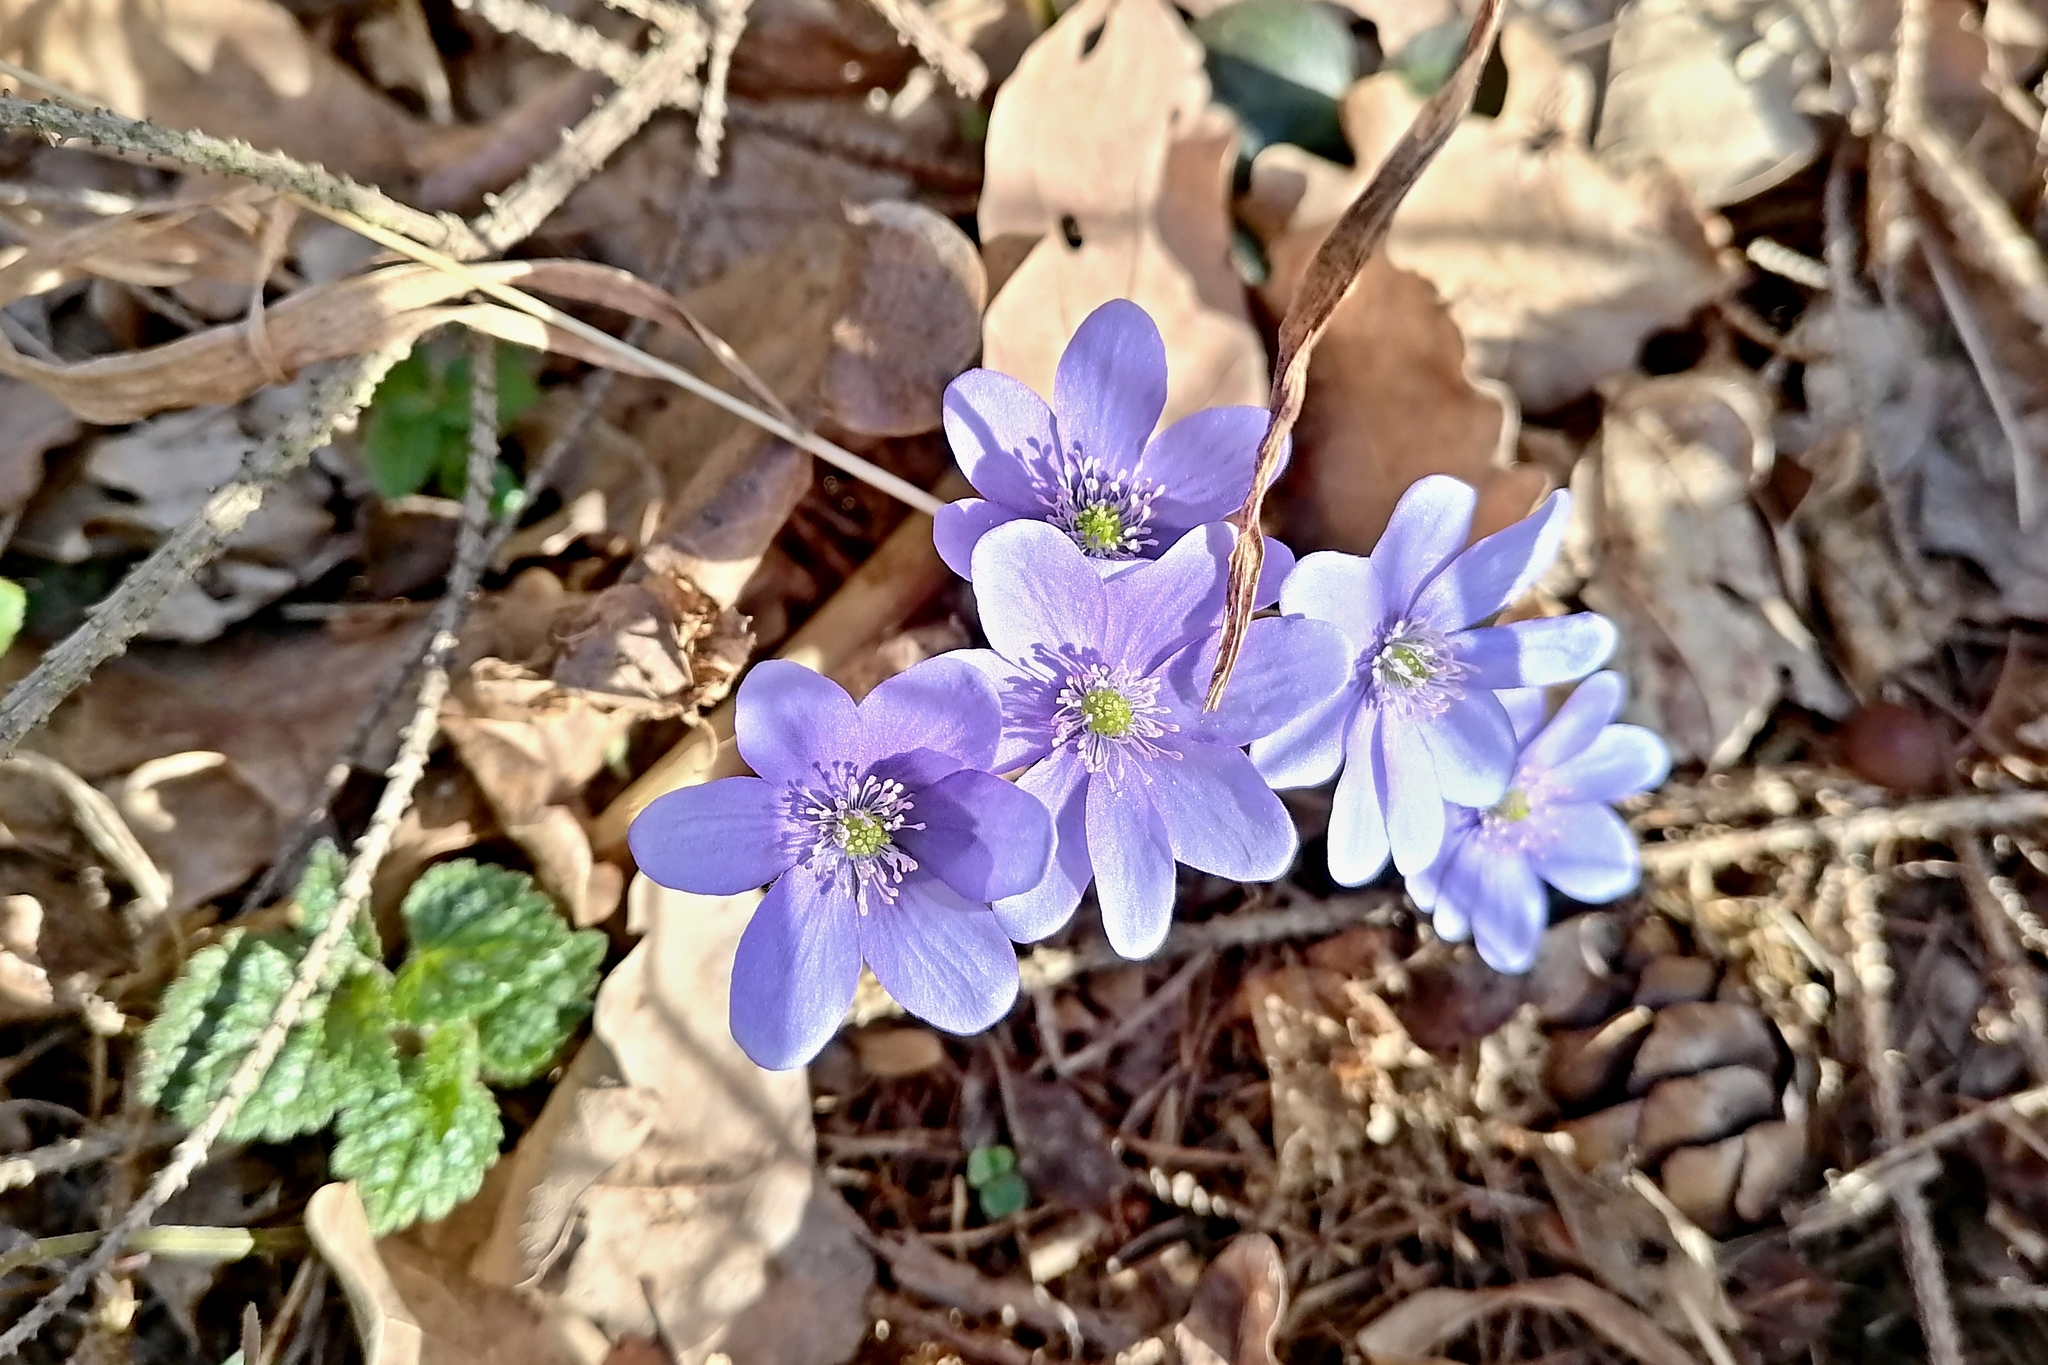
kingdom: Plantae
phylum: Tracheophyta
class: Magnoliopsida
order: Ranunculales
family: Ranunculaceae
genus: Hepatica
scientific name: Hepatica nobilis
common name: Liverleaf
